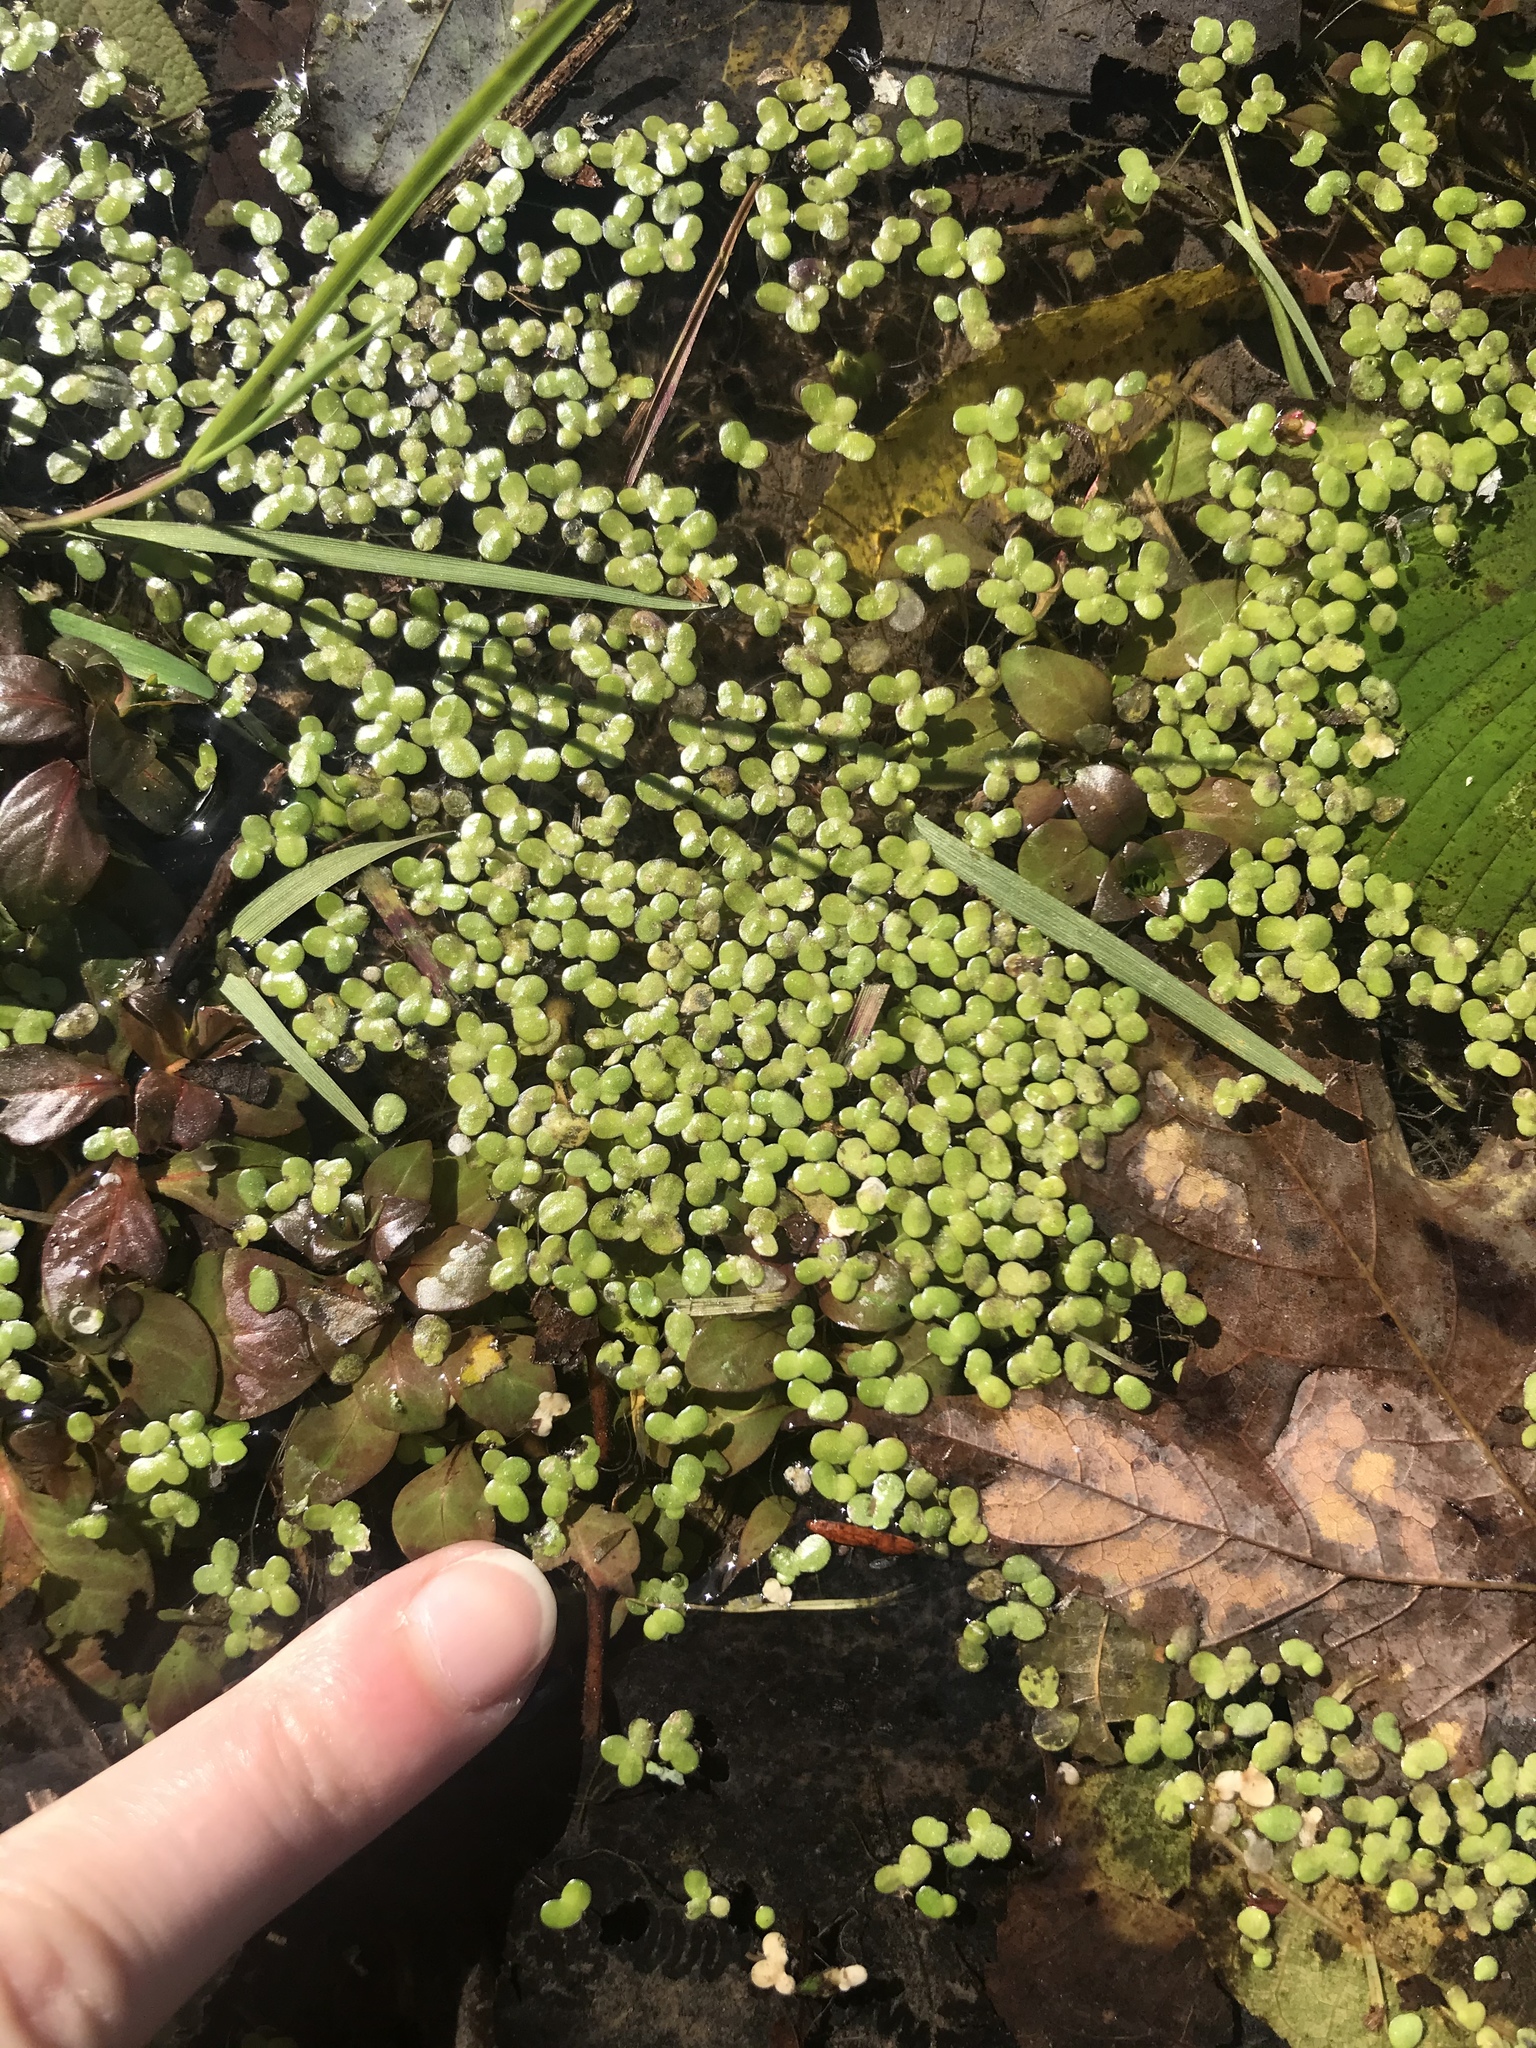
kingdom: Plantae
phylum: Tracheophyta
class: Liliopsida
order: Alismatales
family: Araceae
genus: Lemna
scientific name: Lemna minor
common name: Common duckweed
